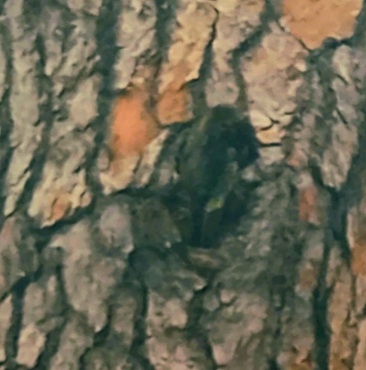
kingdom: Animalia
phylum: Chordata
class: Aves
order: Passeriformes
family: Phylloscopidae
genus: Phylloscopus
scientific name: Phylloscopus collybita
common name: Common chiffchaff
